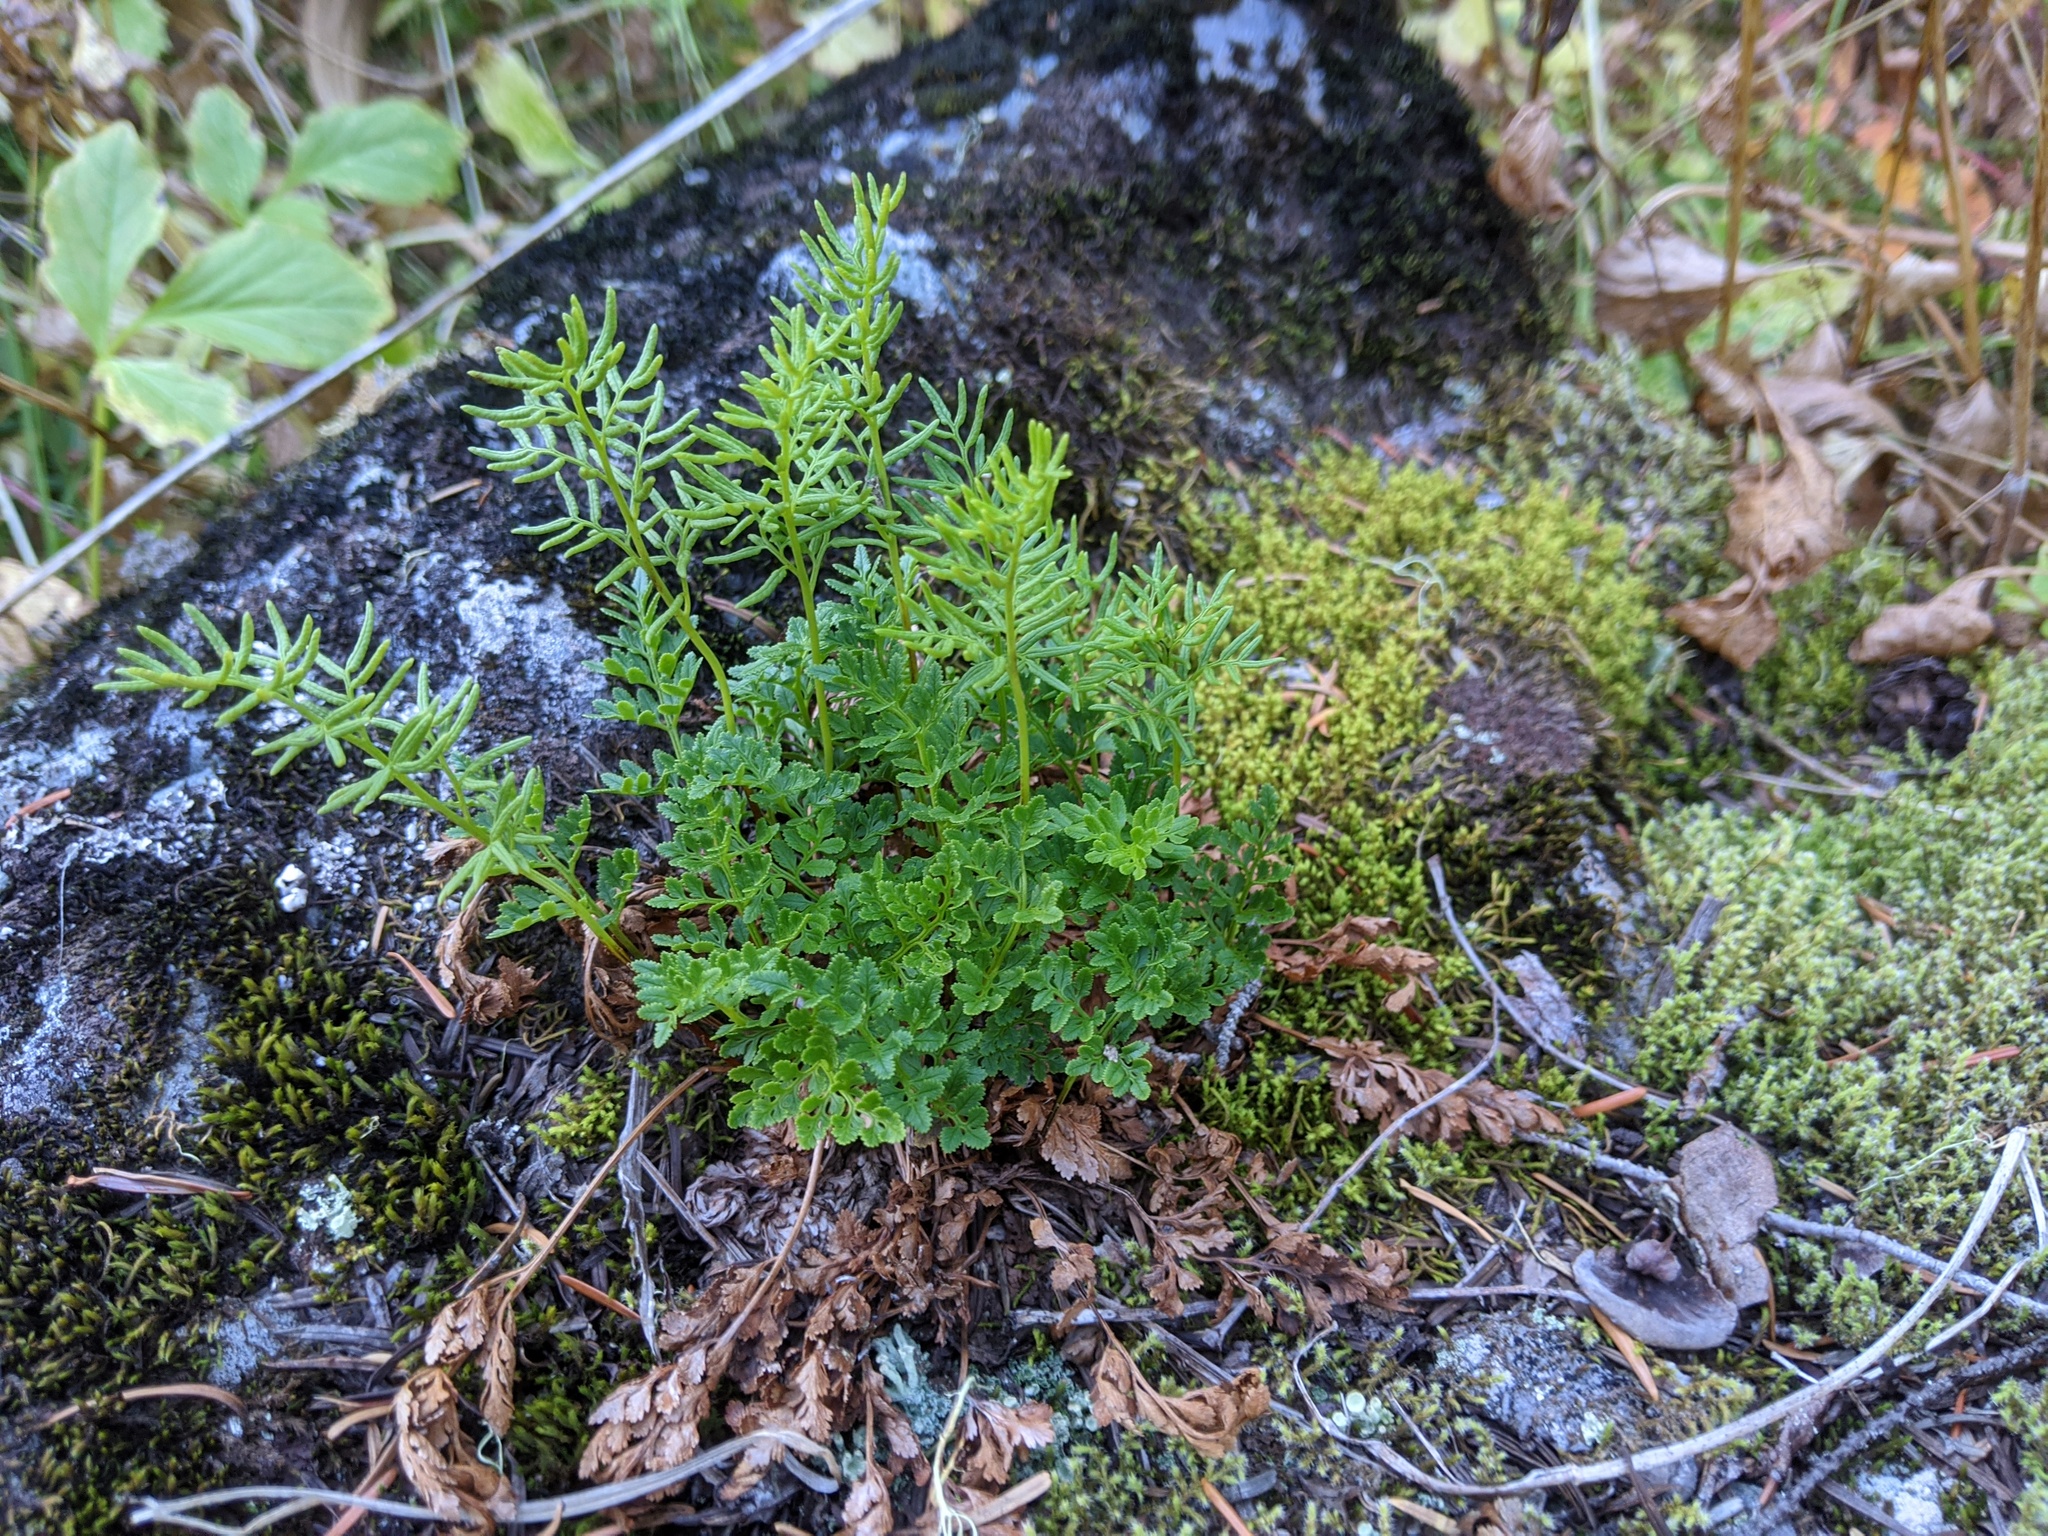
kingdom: Plantae
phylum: Tracheophyta
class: Polypodiopsida
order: Polypodiales
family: Pteridaceae
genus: Cryptogramma
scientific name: Cryptogramma acrostichoides
